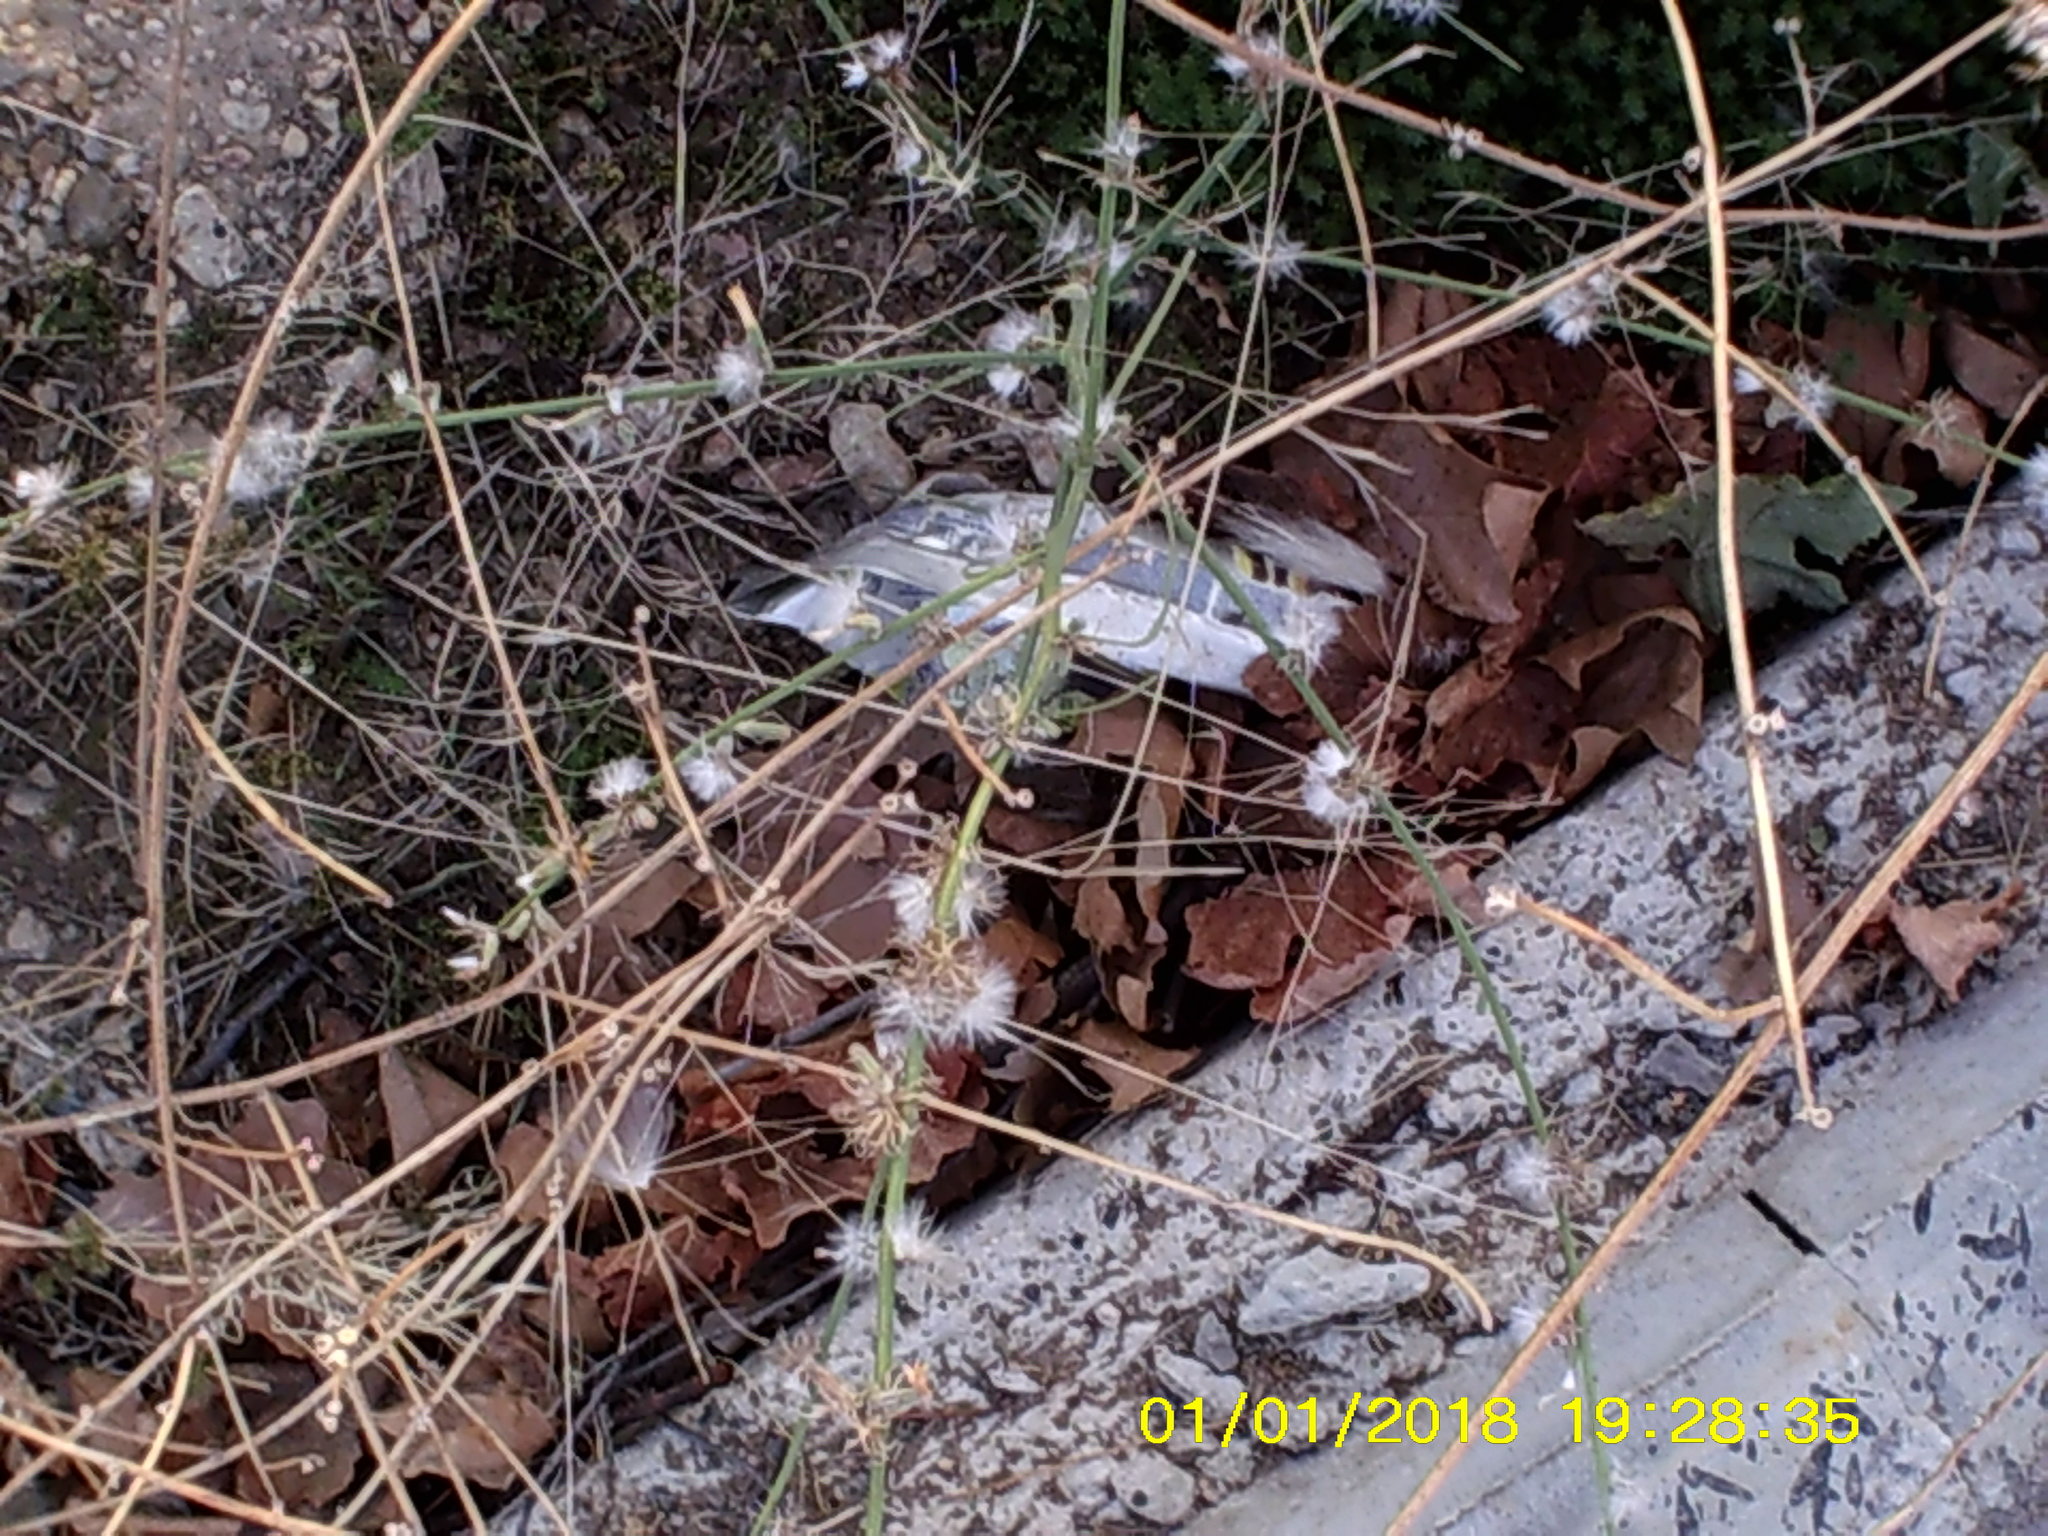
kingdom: Plantae
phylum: Tracheophyta
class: Magnoliopsida
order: Asterales
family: Asteraceae
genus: Chondrilla
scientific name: Chondrilla juncea
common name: Skeleton weed
